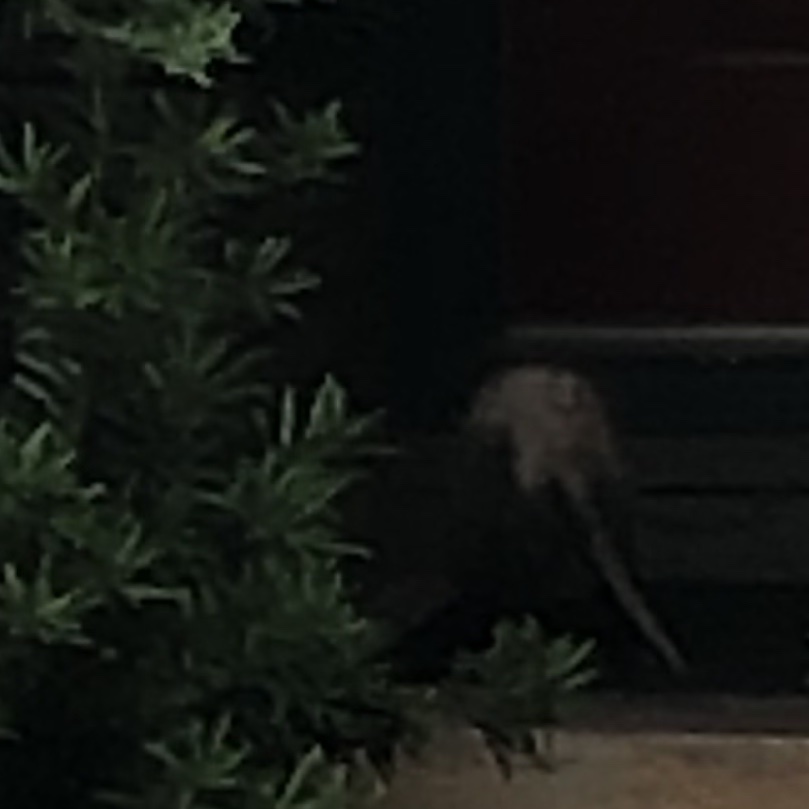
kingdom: Animalia
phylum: Chordata
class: Mammalia
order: Didelphimorphia
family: Didelphidae
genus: Didelphis
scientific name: Didelphis virginiana
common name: Virginia opossum
